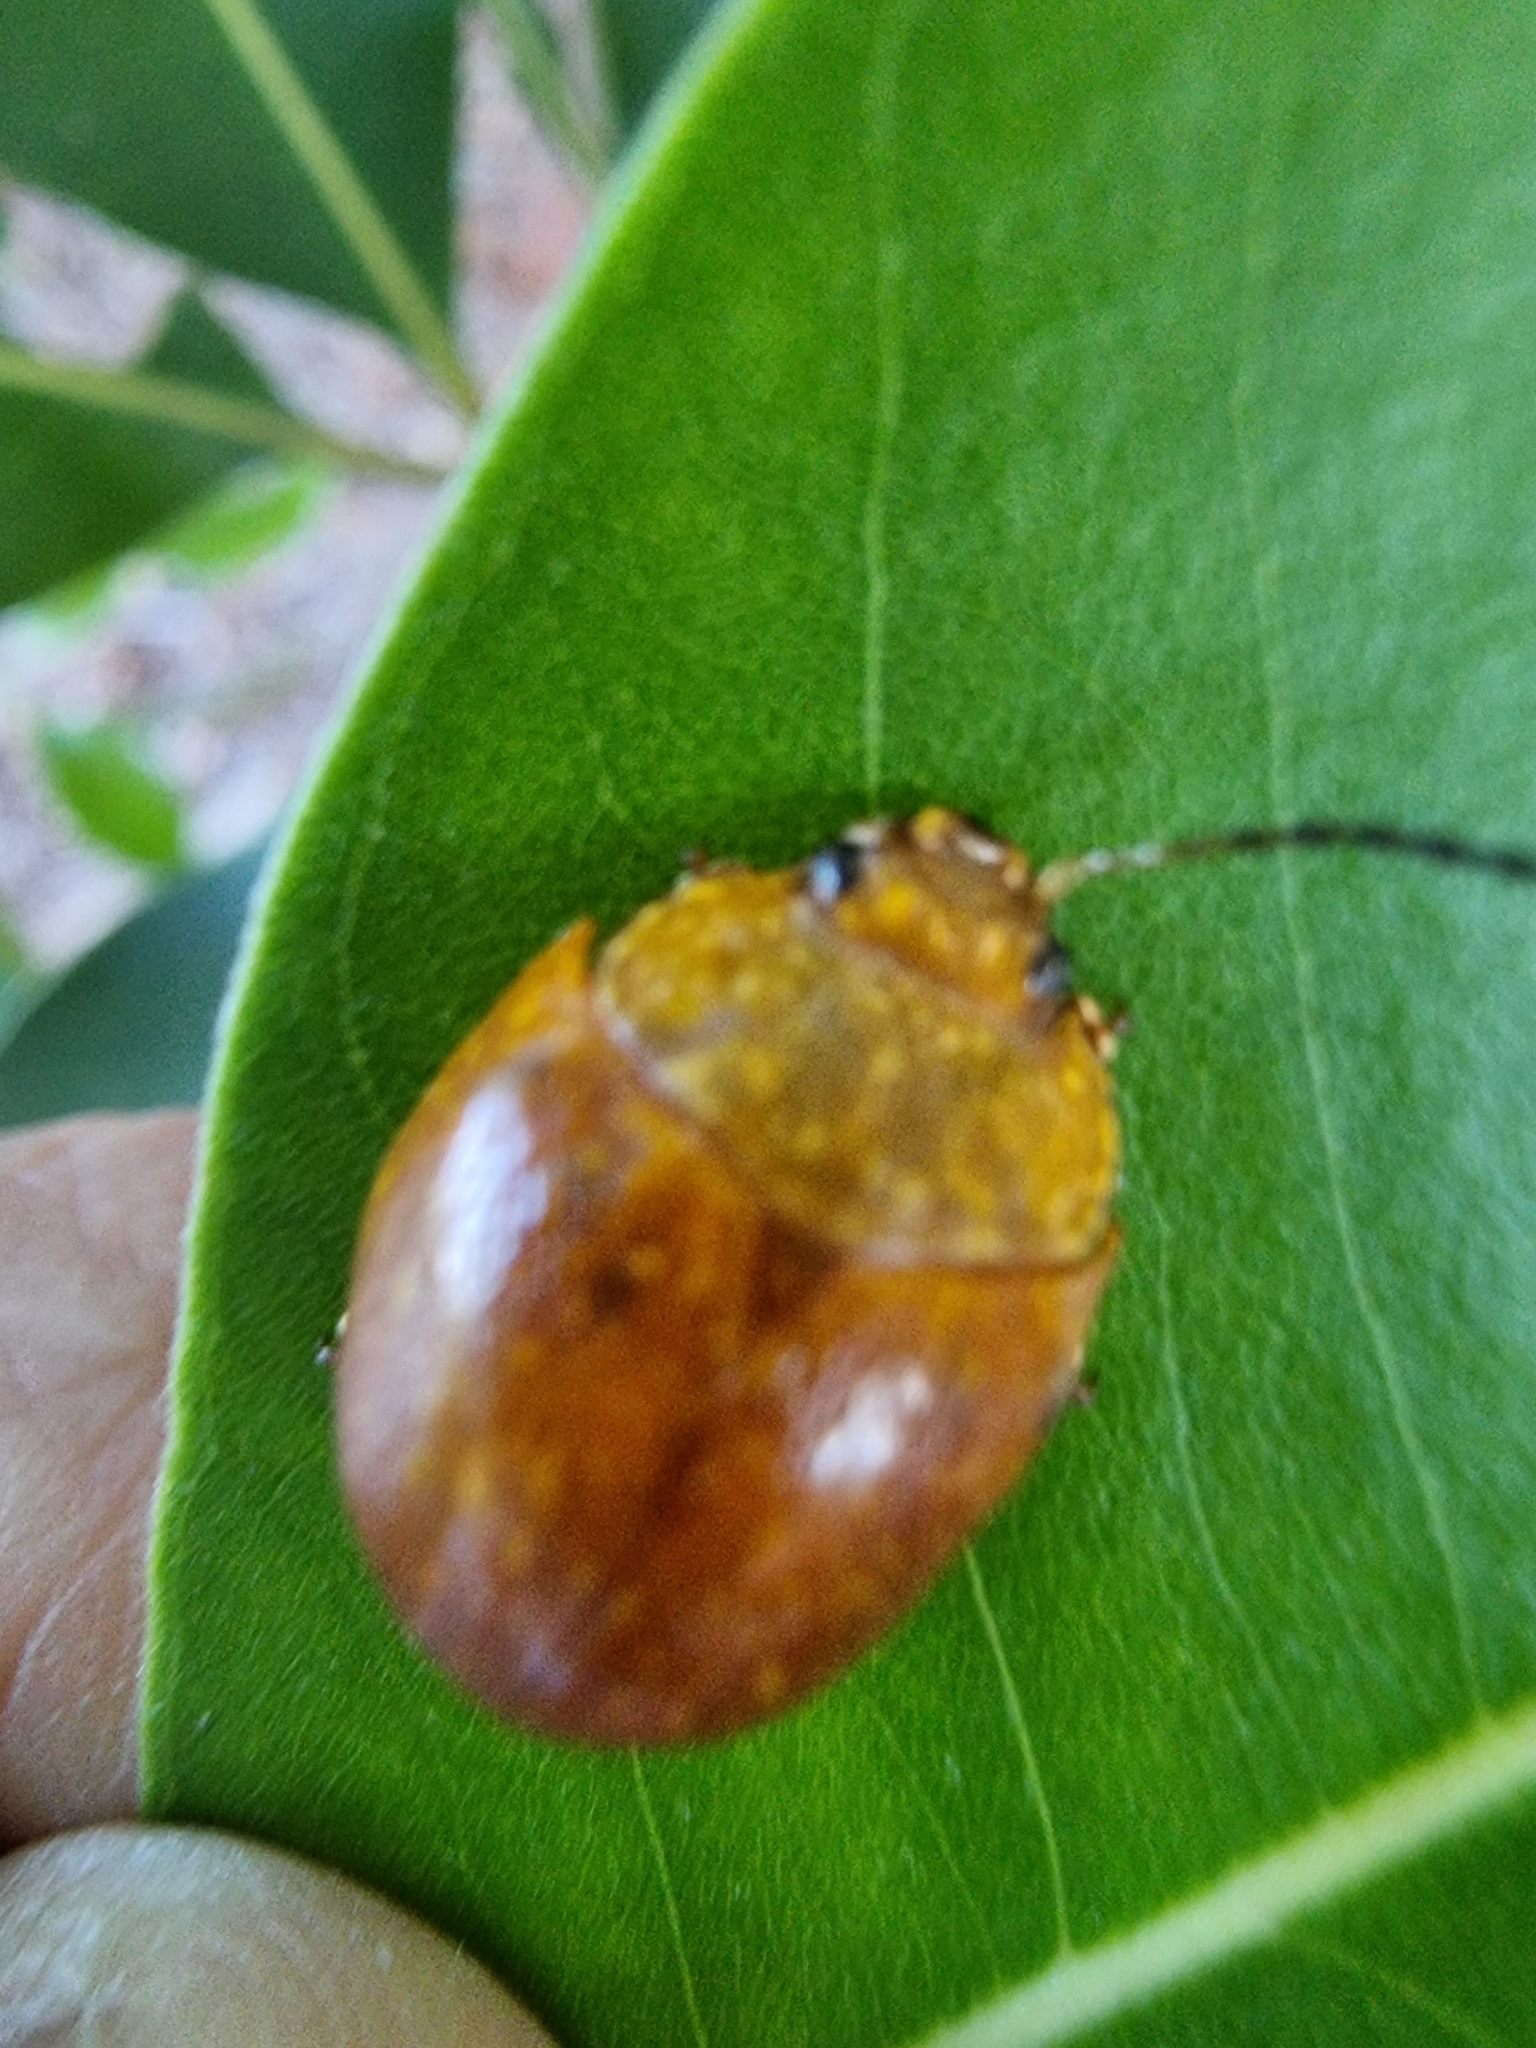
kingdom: Animalia
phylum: Arthropoda
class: Insecta
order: Coleoptera
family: Chrysomelidae
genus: Paropsisterna
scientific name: Paropsisterna cloelia
